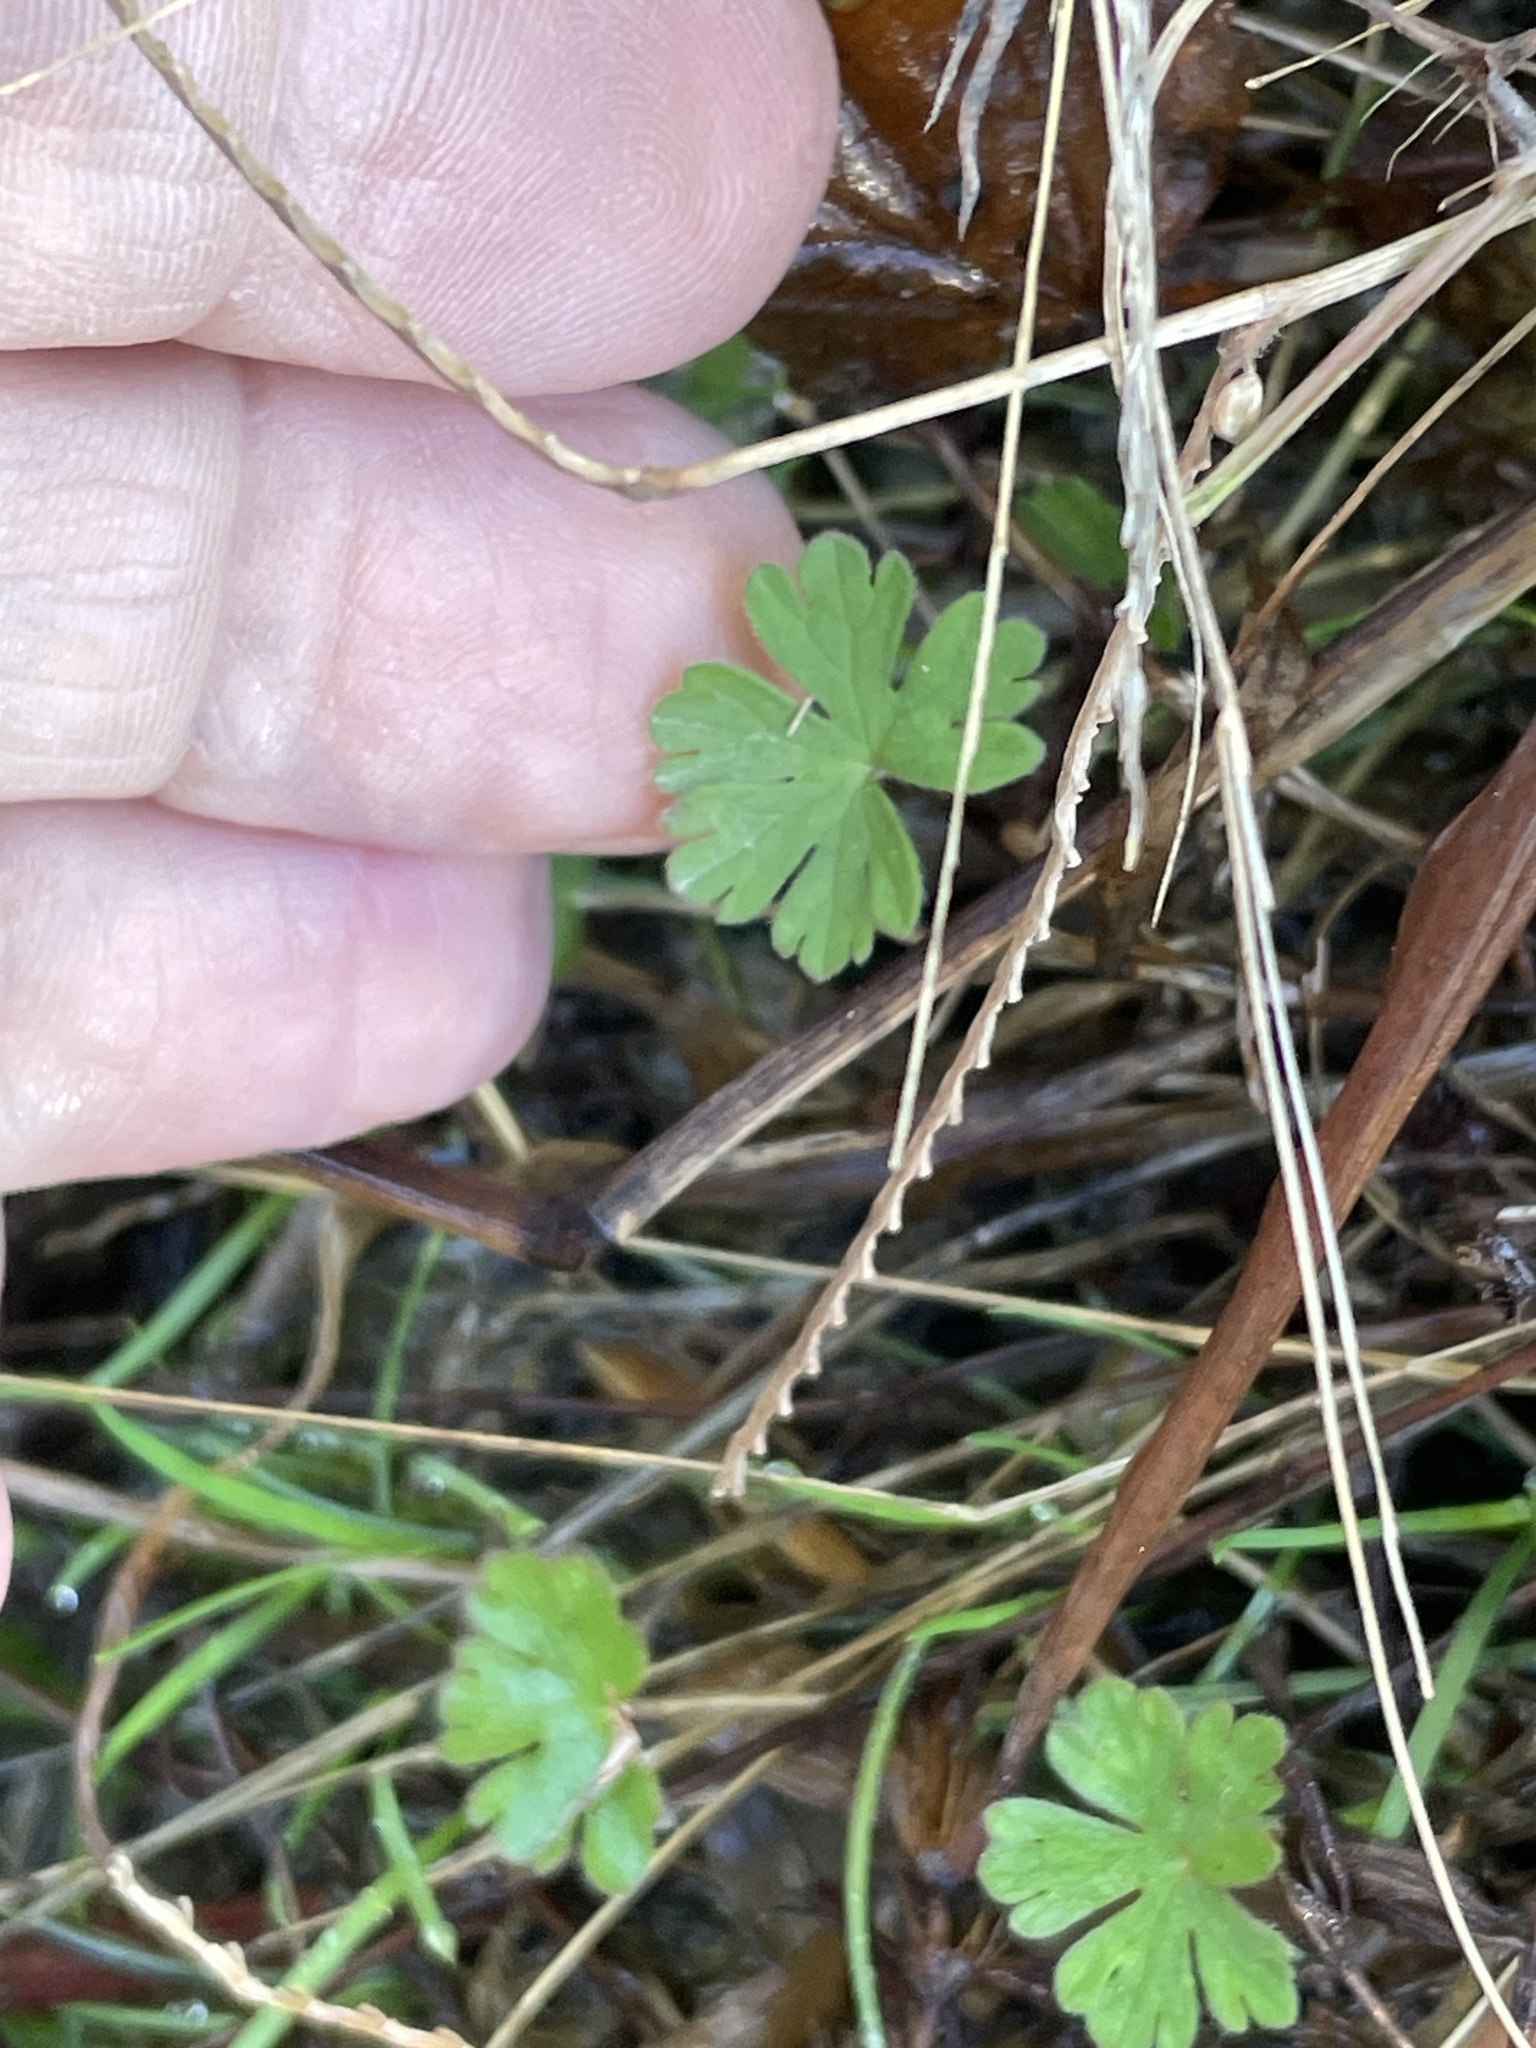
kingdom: Plantae
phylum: Tracheophyta
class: Magnoliopsida
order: Geraniales
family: Geraniaceae
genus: Geranium
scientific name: Geranium carolinianum
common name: Carolina crane's-bill
